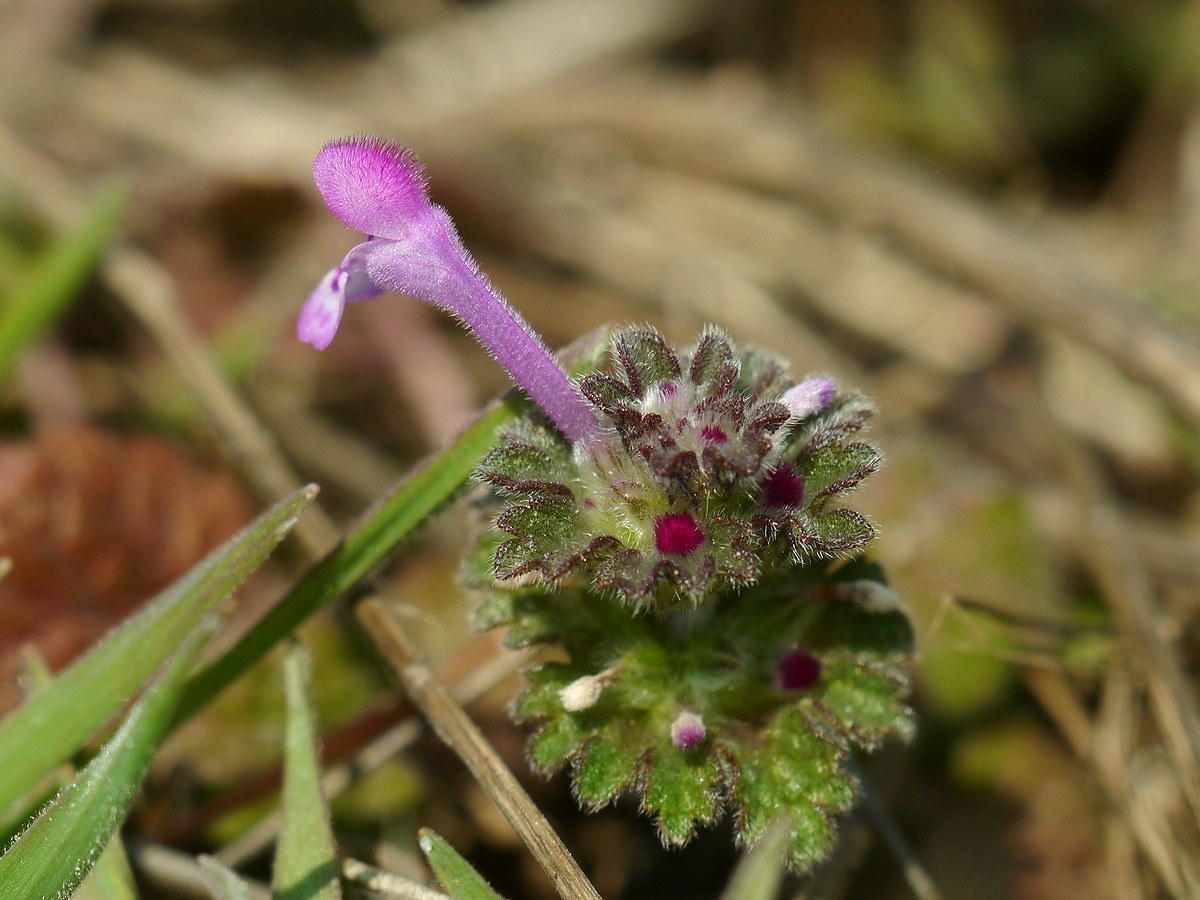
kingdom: Plantae
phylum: Tracheophyta
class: Magnoliopsida
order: Lamiales
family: Lamiaceae
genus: Lamium
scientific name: Lamium amplexicaule
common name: Henbit dead-nettle
